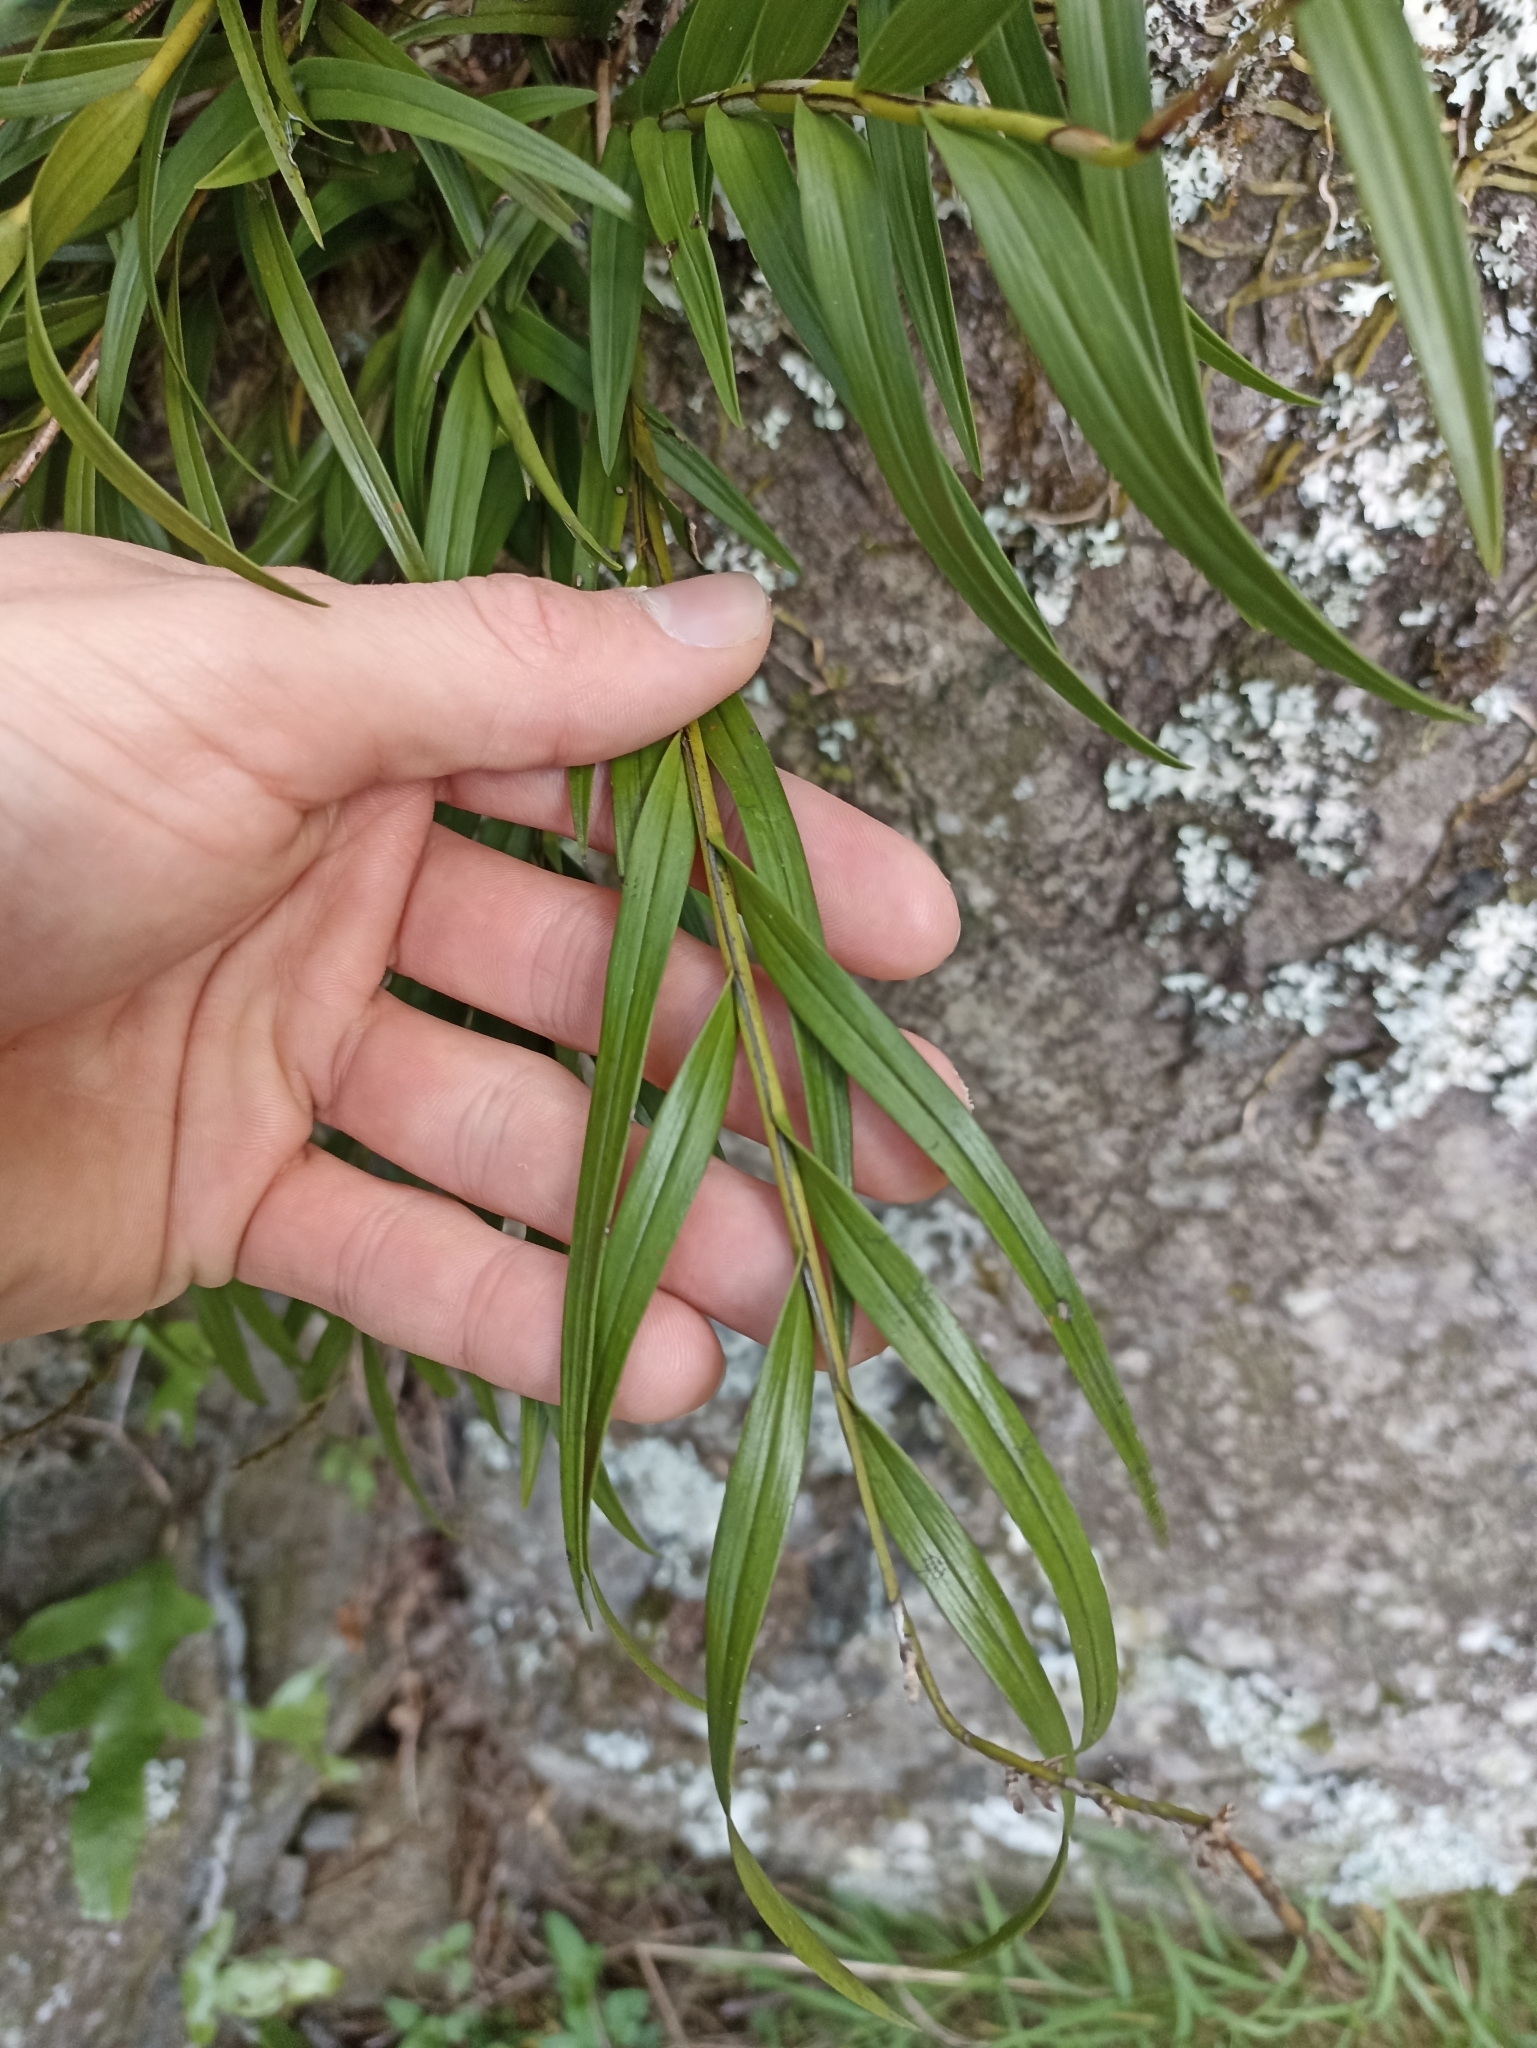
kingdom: Plantae
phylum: Tracheophyta
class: Liliopsida
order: Asparagales
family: Orchidaceae
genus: Earina
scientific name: Earina autumnalis
